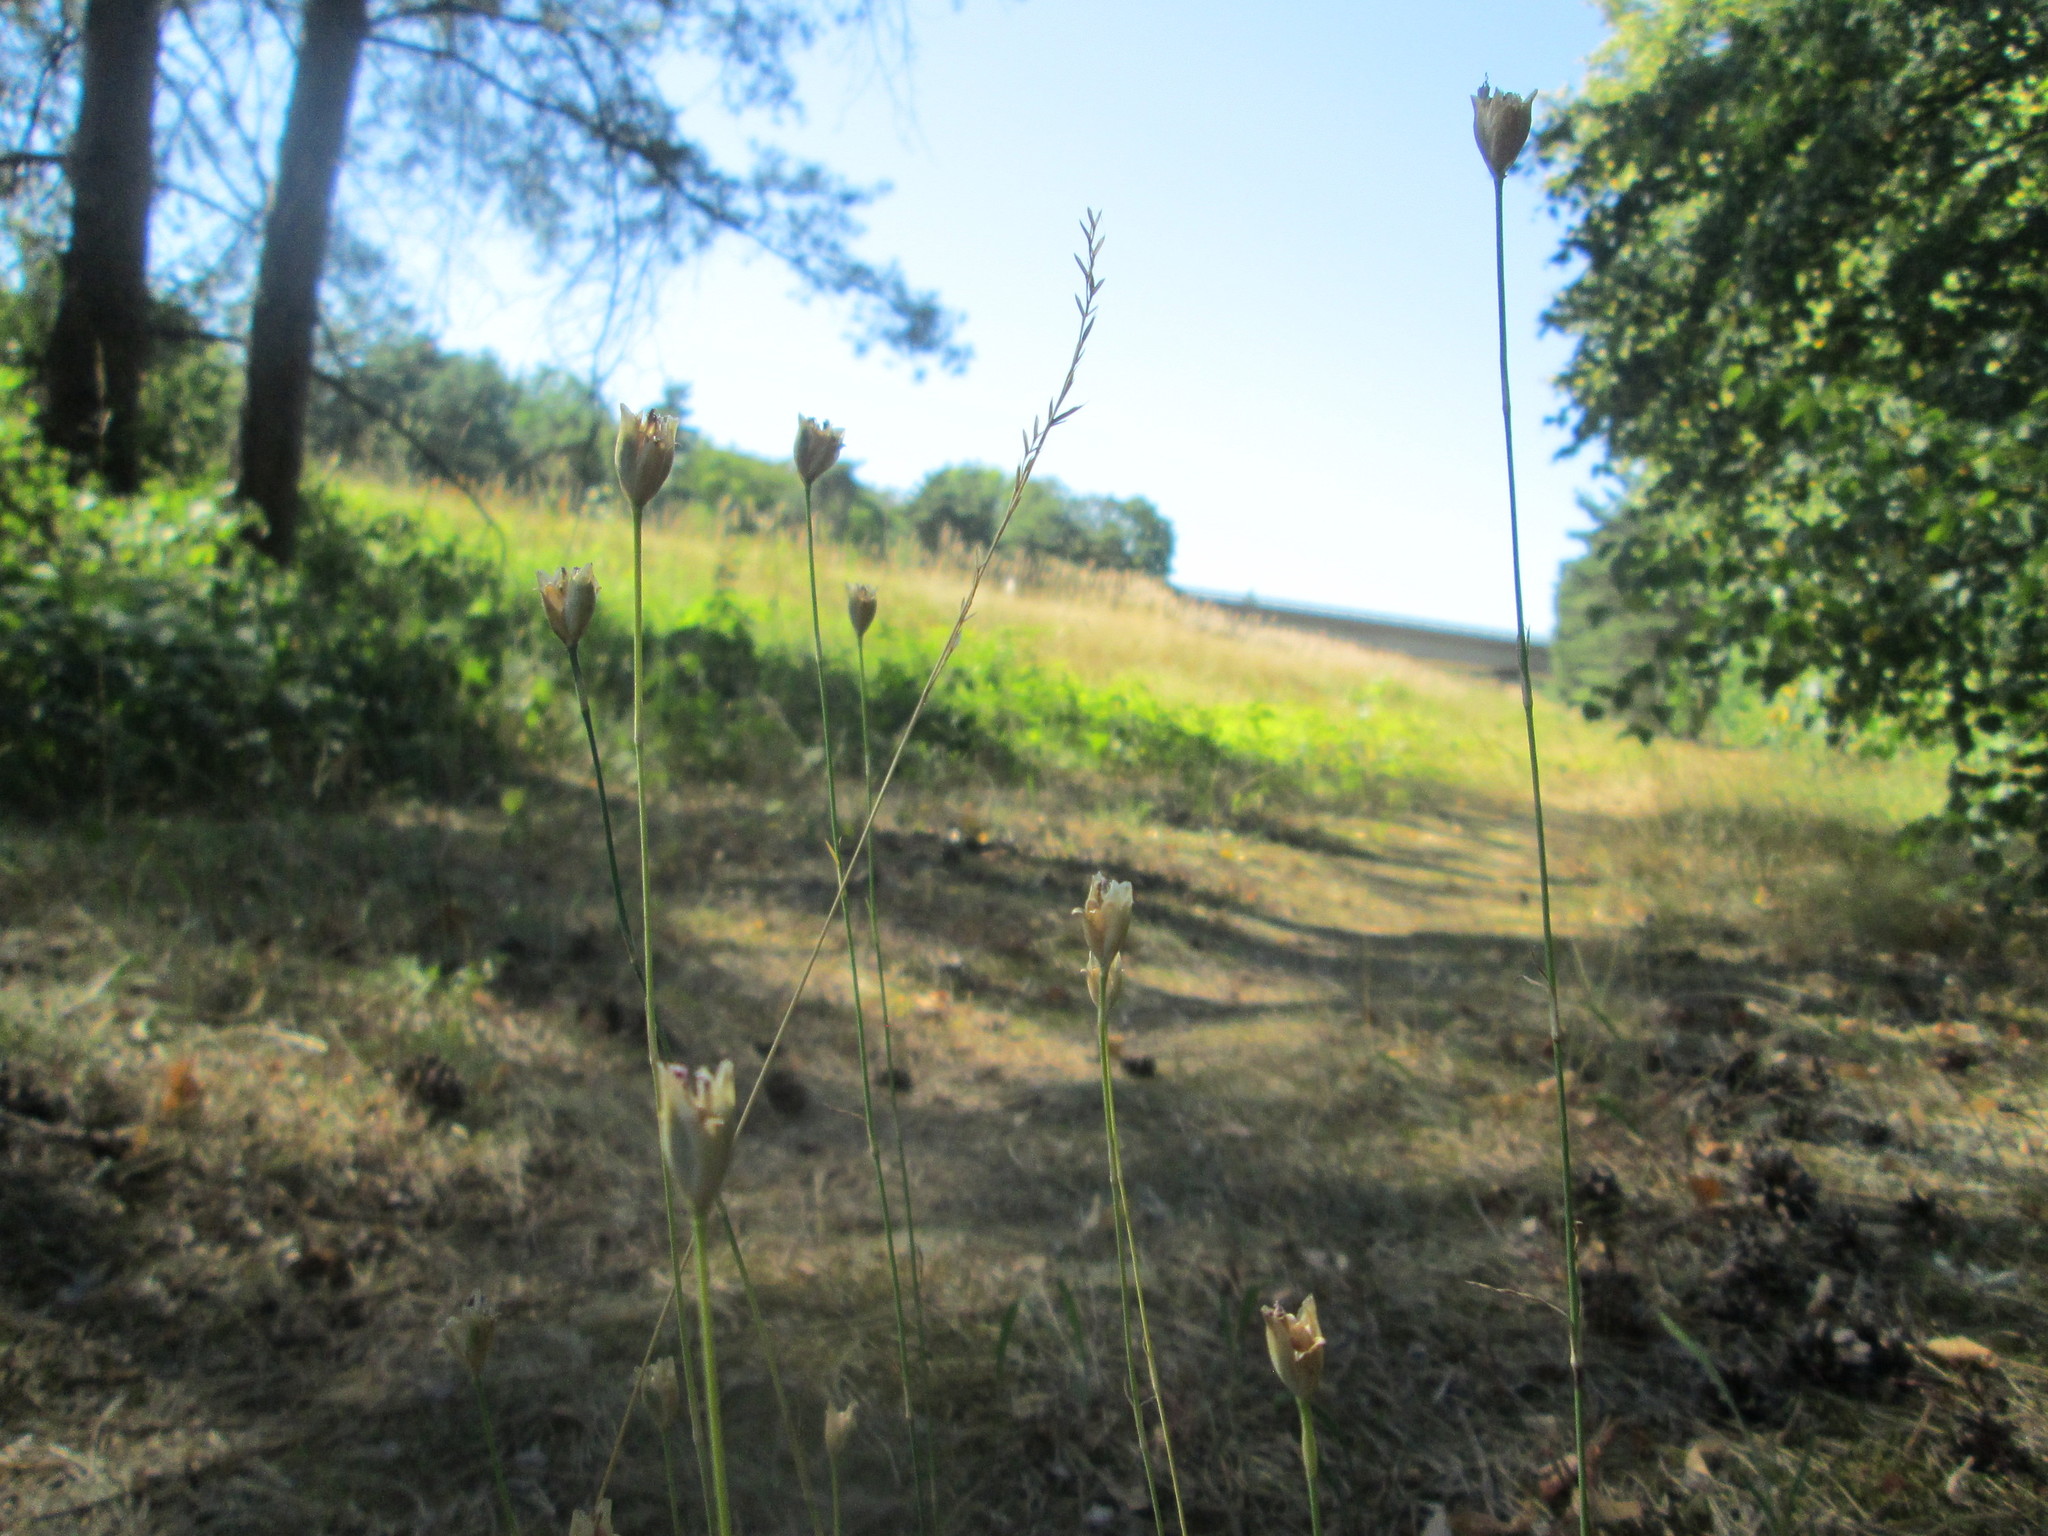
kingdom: Plantae
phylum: Tracheophyta
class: Magnoliopsida
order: Caryophyllales
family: Caryophyllaceae
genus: Petrorhagia
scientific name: Petrorhagia prolifera
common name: Proliferous pink
